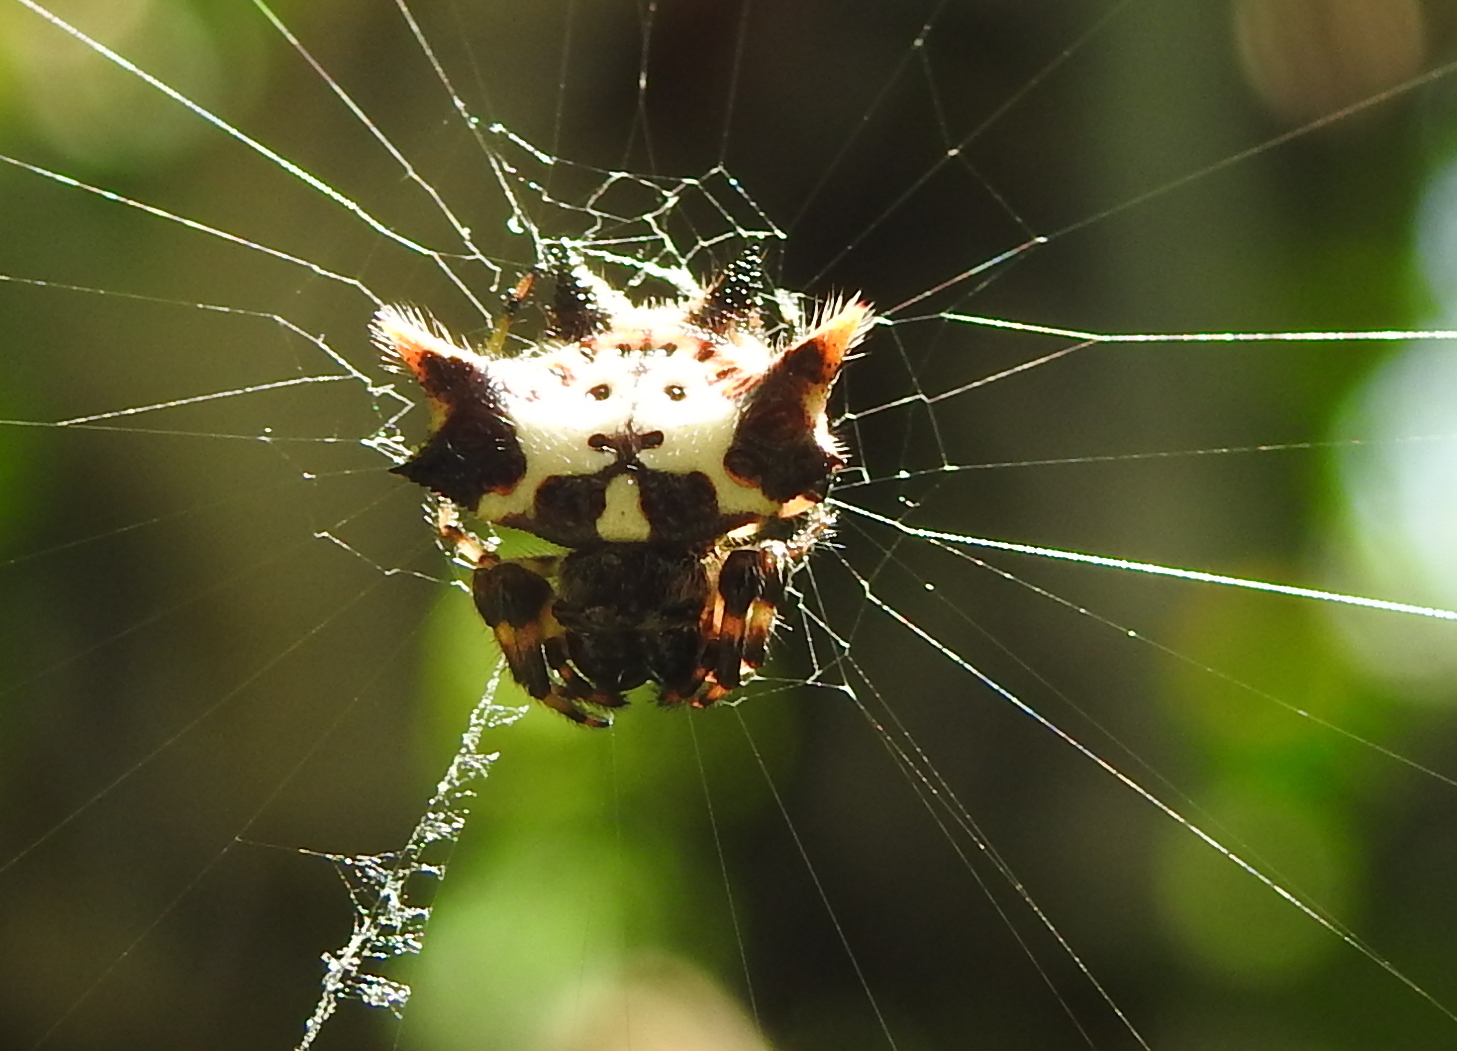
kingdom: Animalia
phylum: Arthropoda
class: Arachnida
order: Araneae
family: Araneidae
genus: Gasteracantha
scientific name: Gasteracantha kuhli
